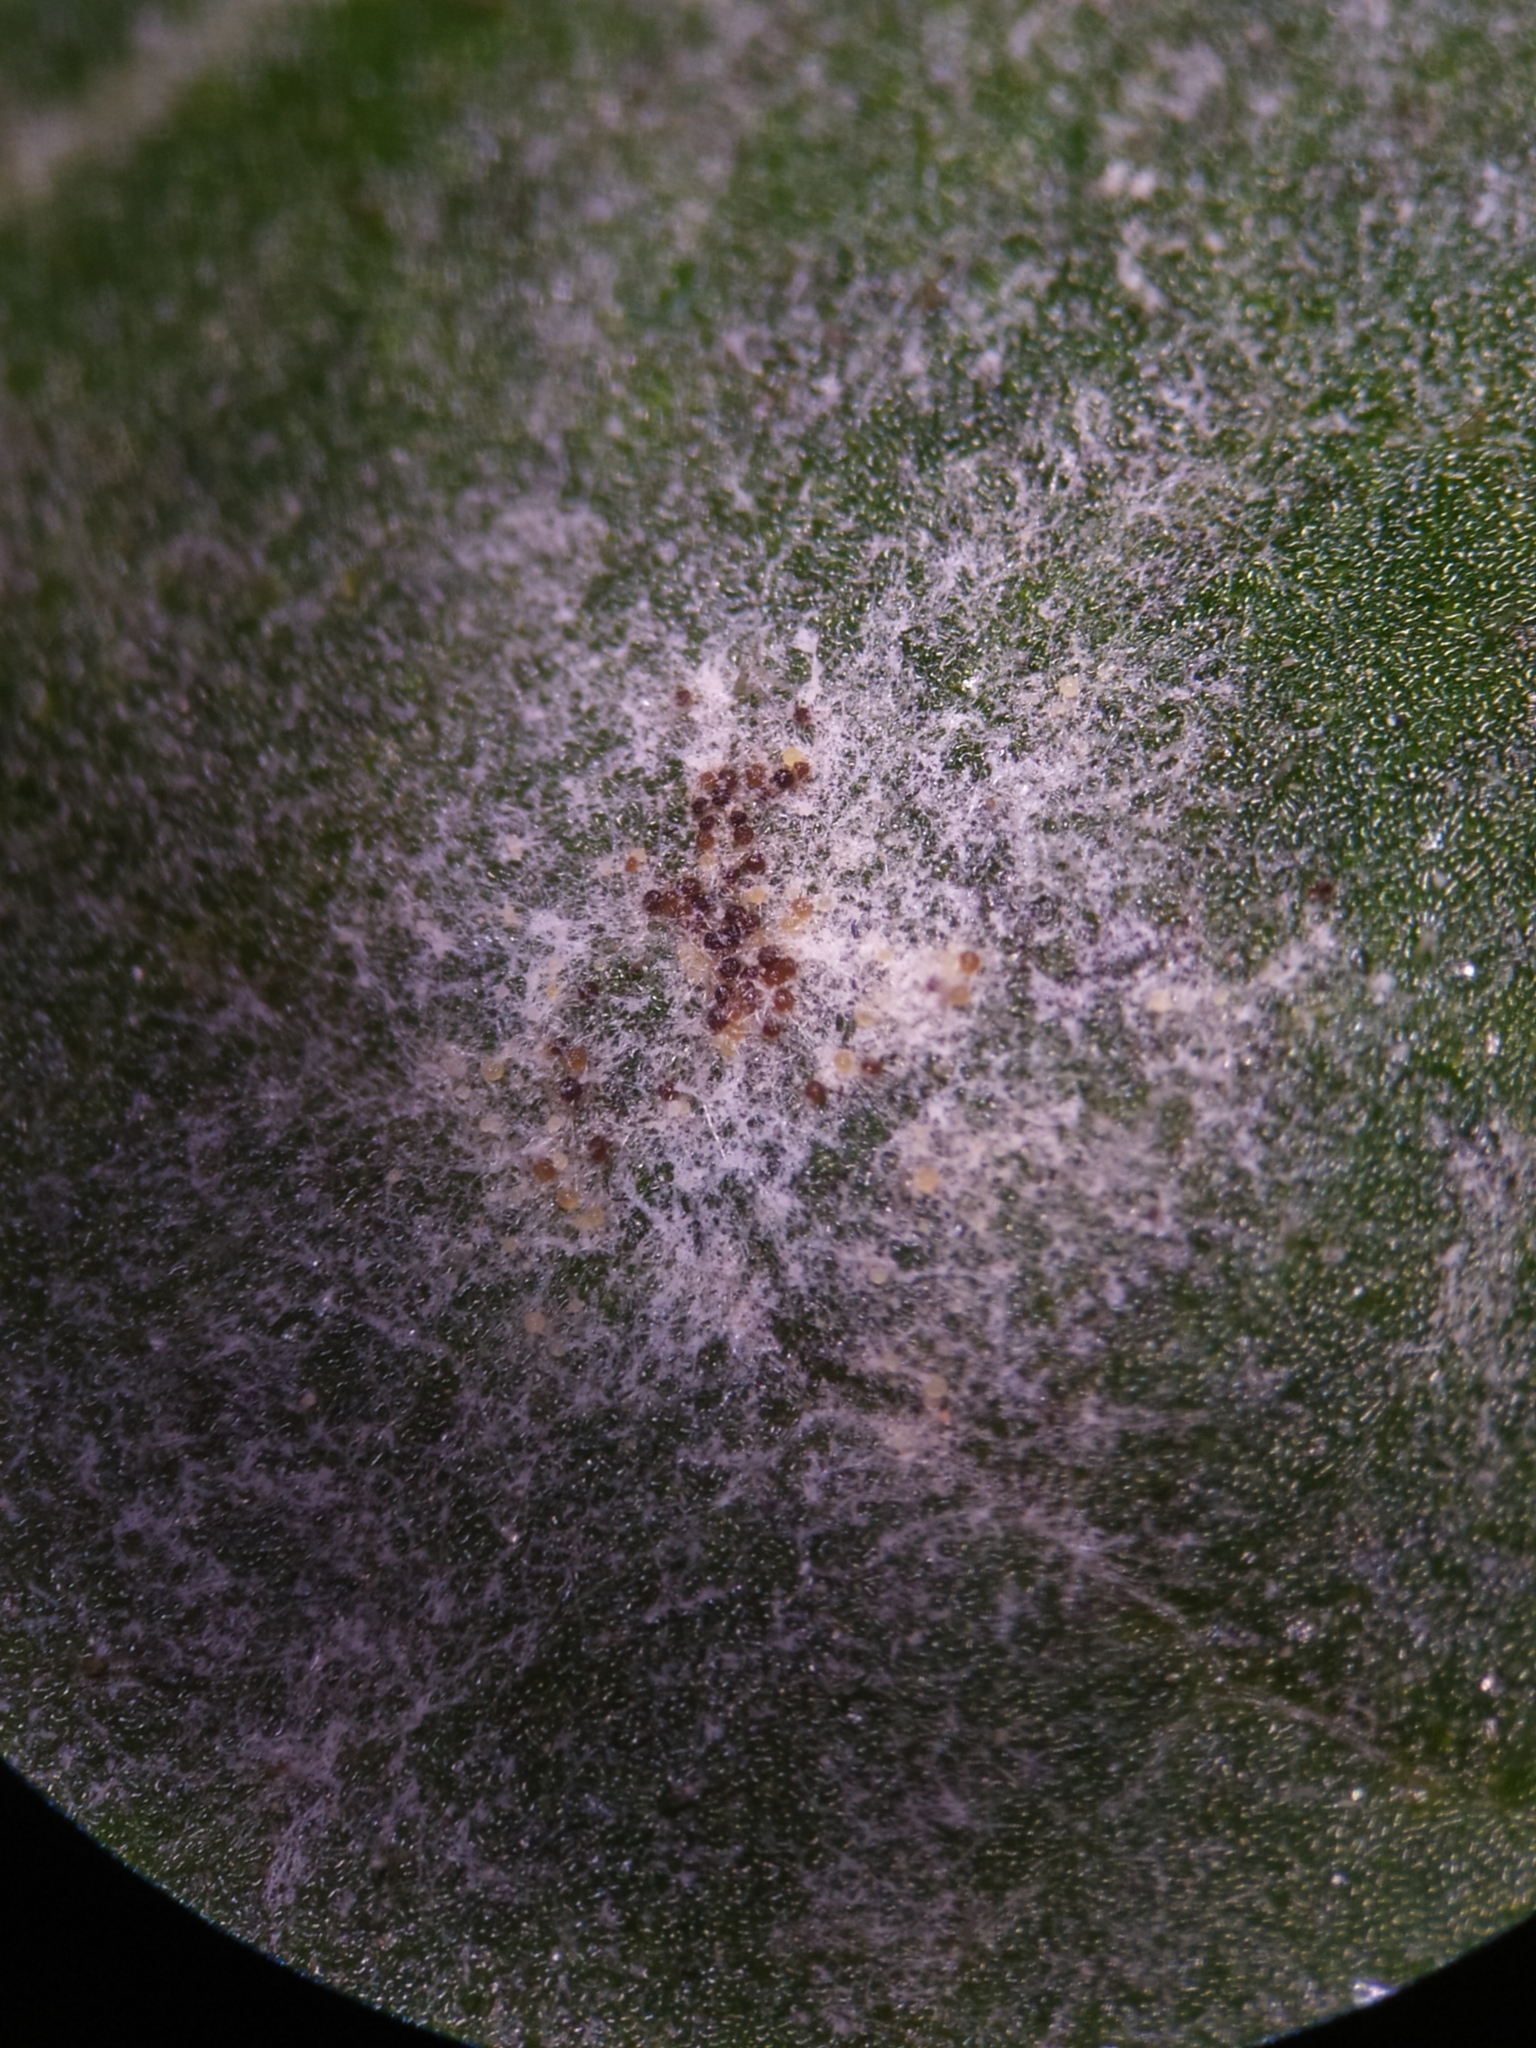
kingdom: Fungi
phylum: Ascomycota
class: Leotiomycetes
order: Helotiales
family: Erysiphaceae
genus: Podosphaera
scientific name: Podosphaera fusca
